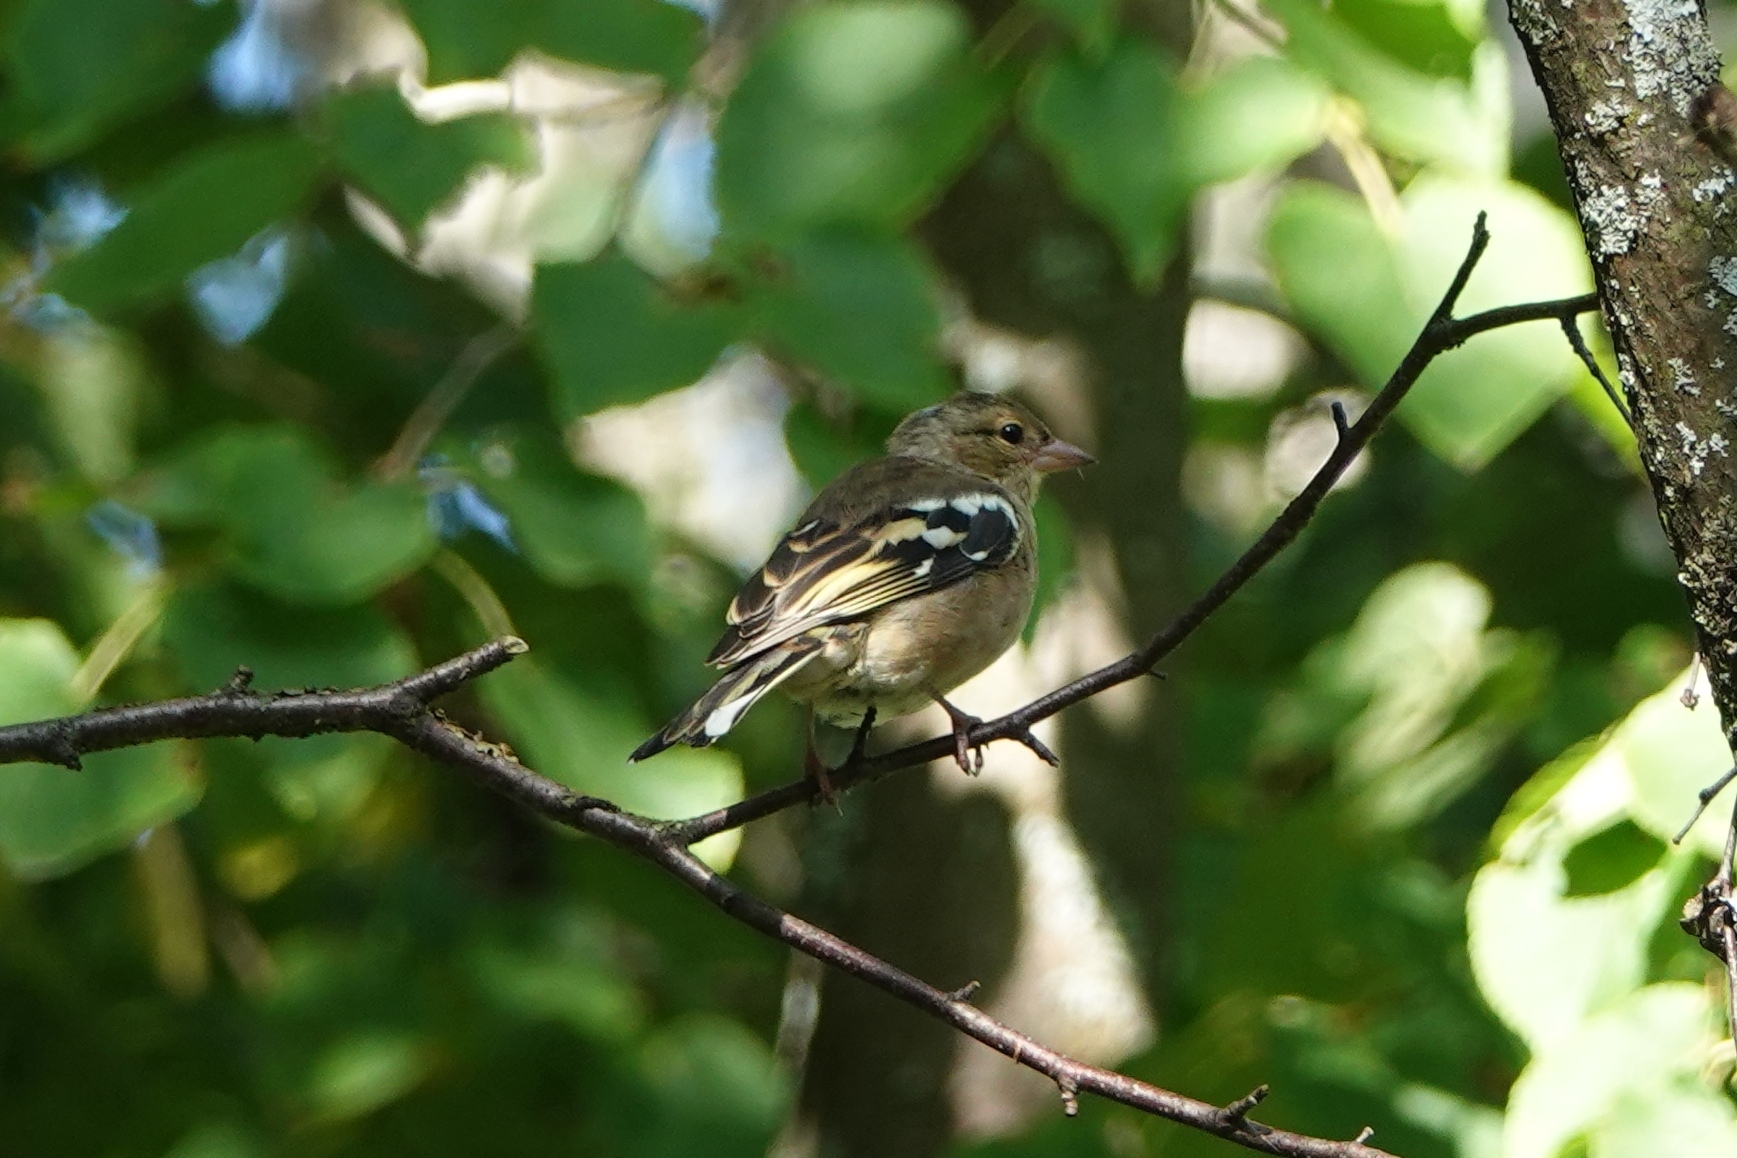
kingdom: Animalia
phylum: Chordata
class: Aves
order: Passeriformes
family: Fringillidae
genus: Fringilla
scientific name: Fringilla coelebs
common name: Common chaffinch
